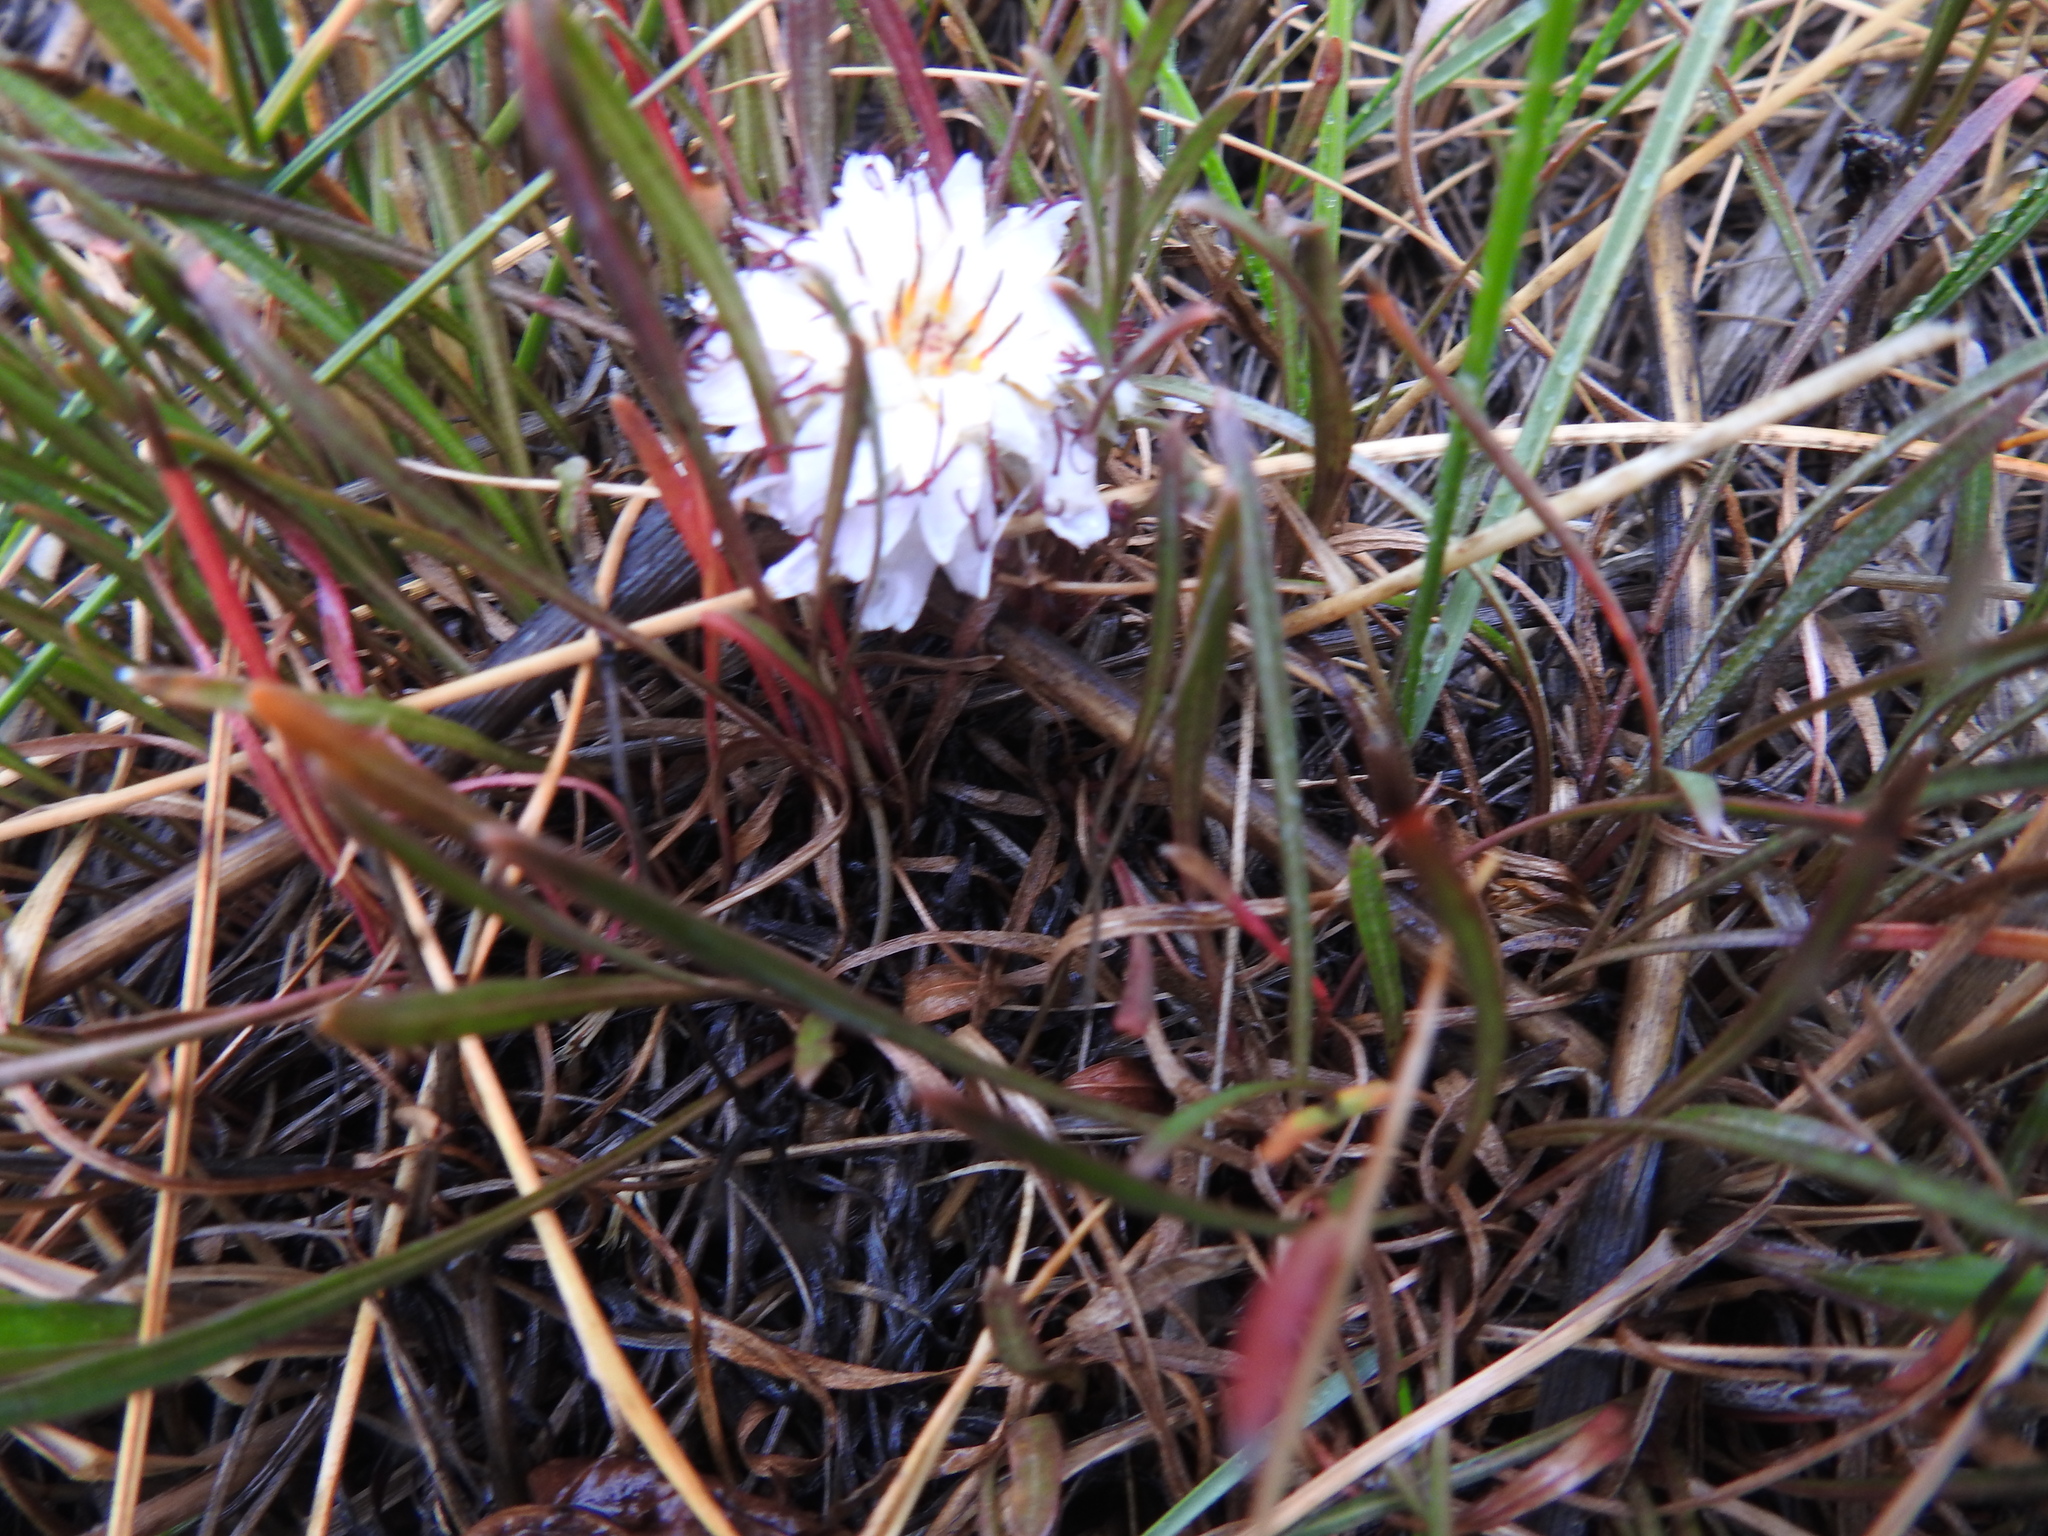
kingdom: Plantae
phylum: Tracheophyta
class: Magnoliopsida
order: Asterales
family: Asteraceae
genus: Hypochaeris
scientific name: Hypochaeris incana
